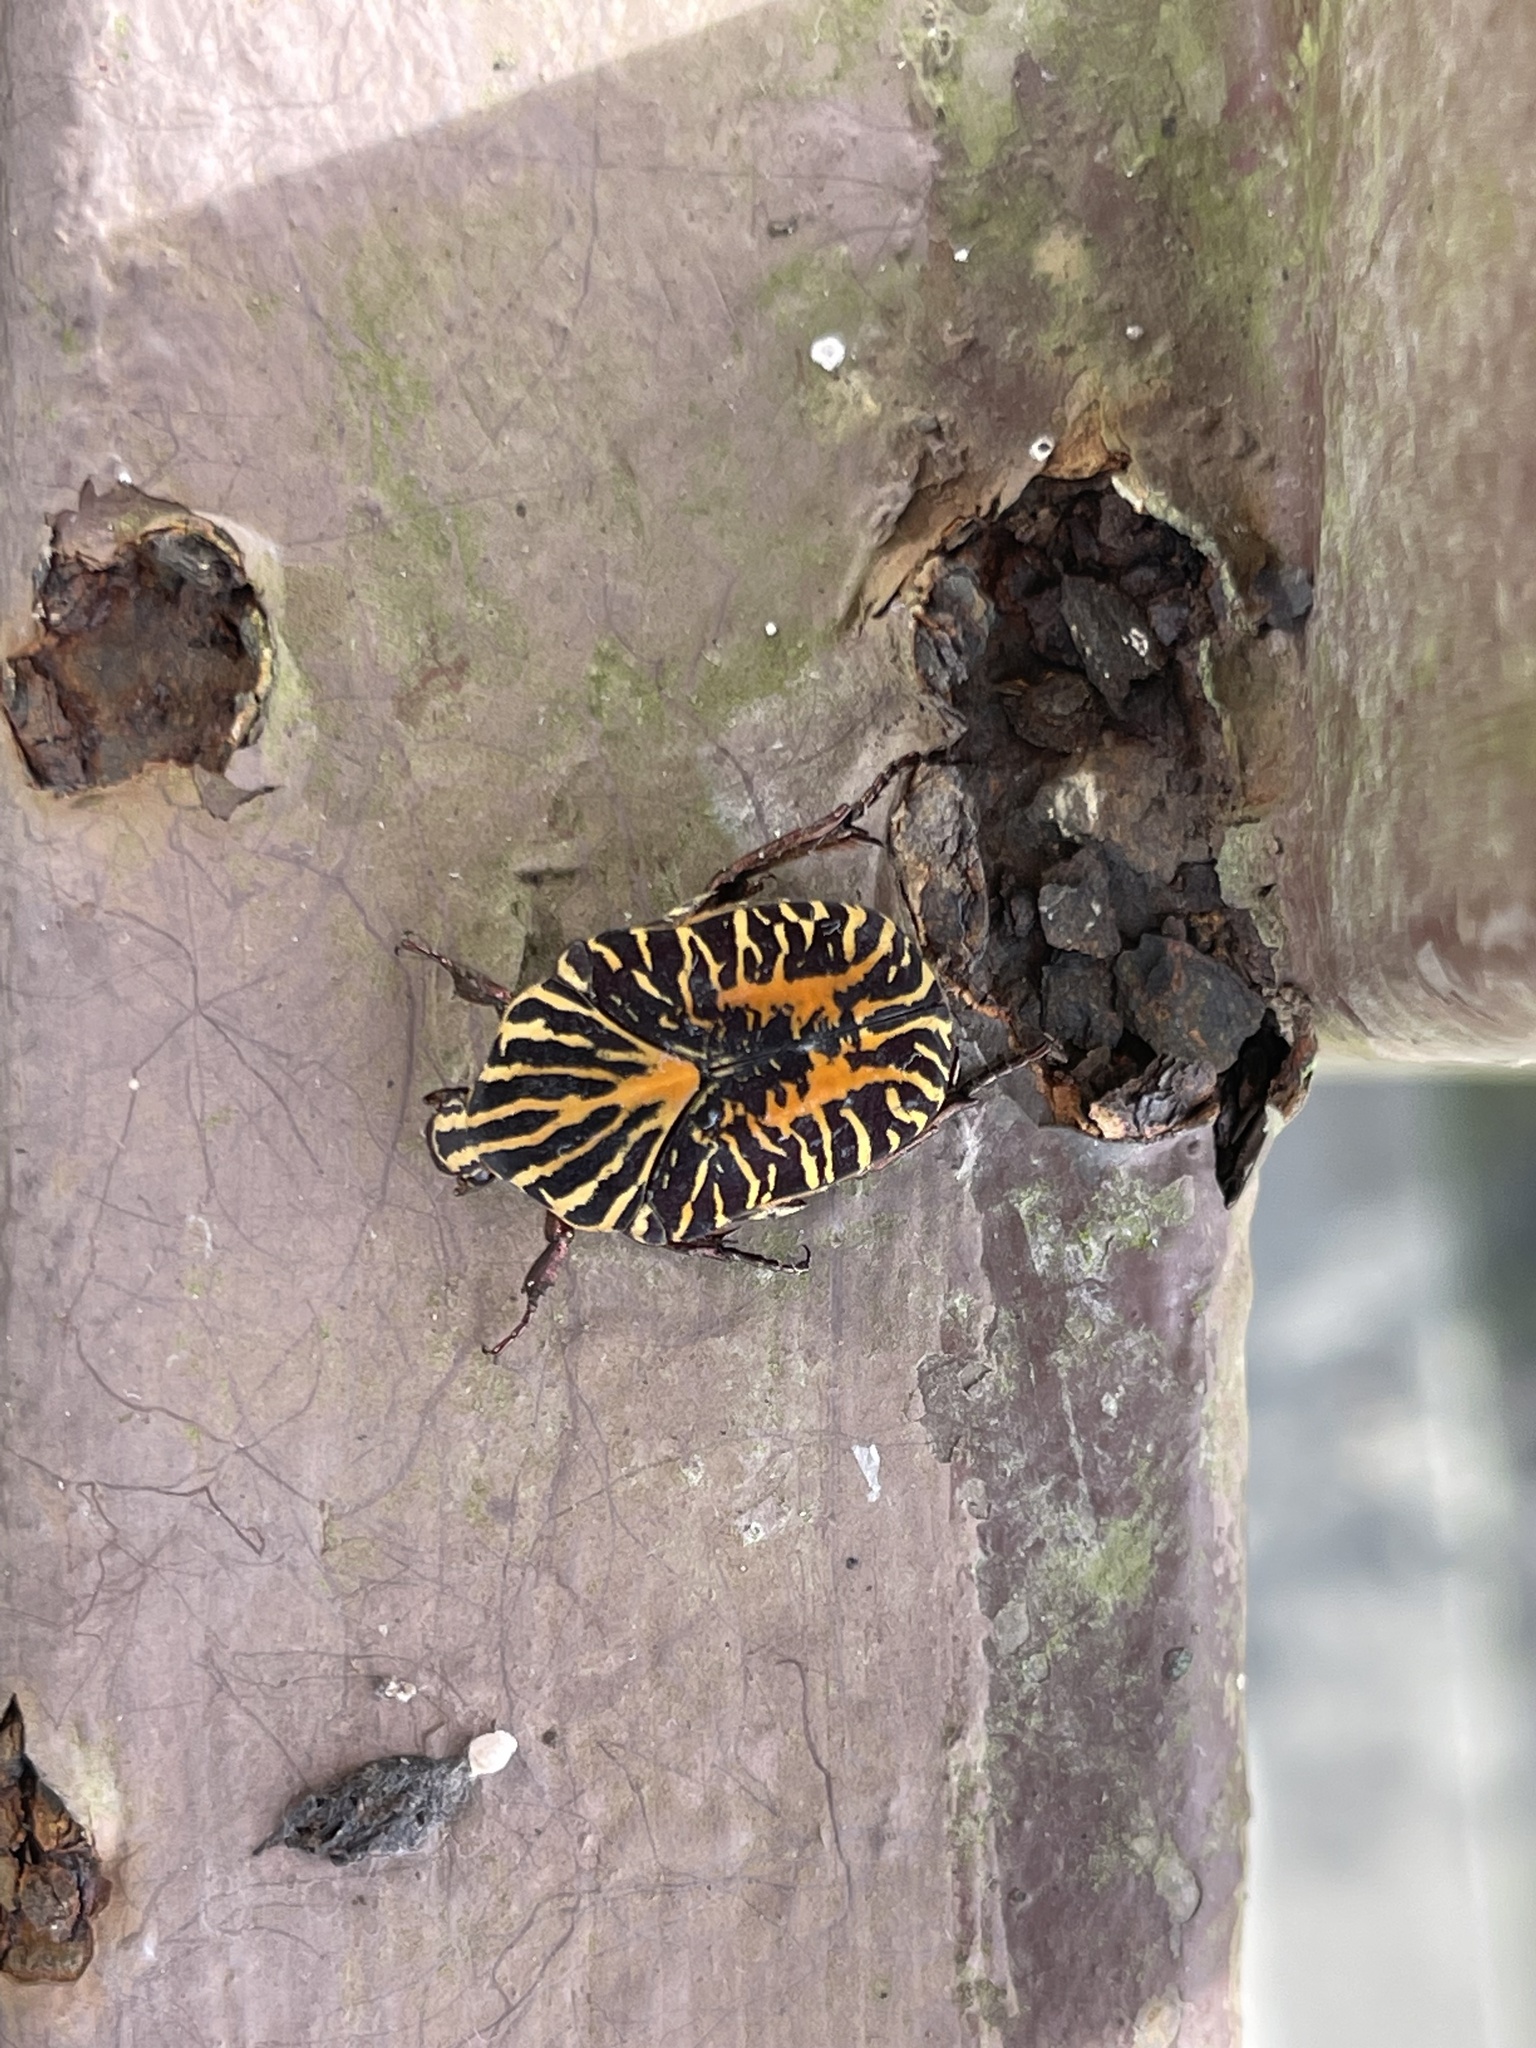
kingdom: Animalia
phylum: Arthropoda
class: Insecta
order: Coleoptera
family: Scarabaeidae
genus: Gymnetis
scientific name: Gymnetis stellata
